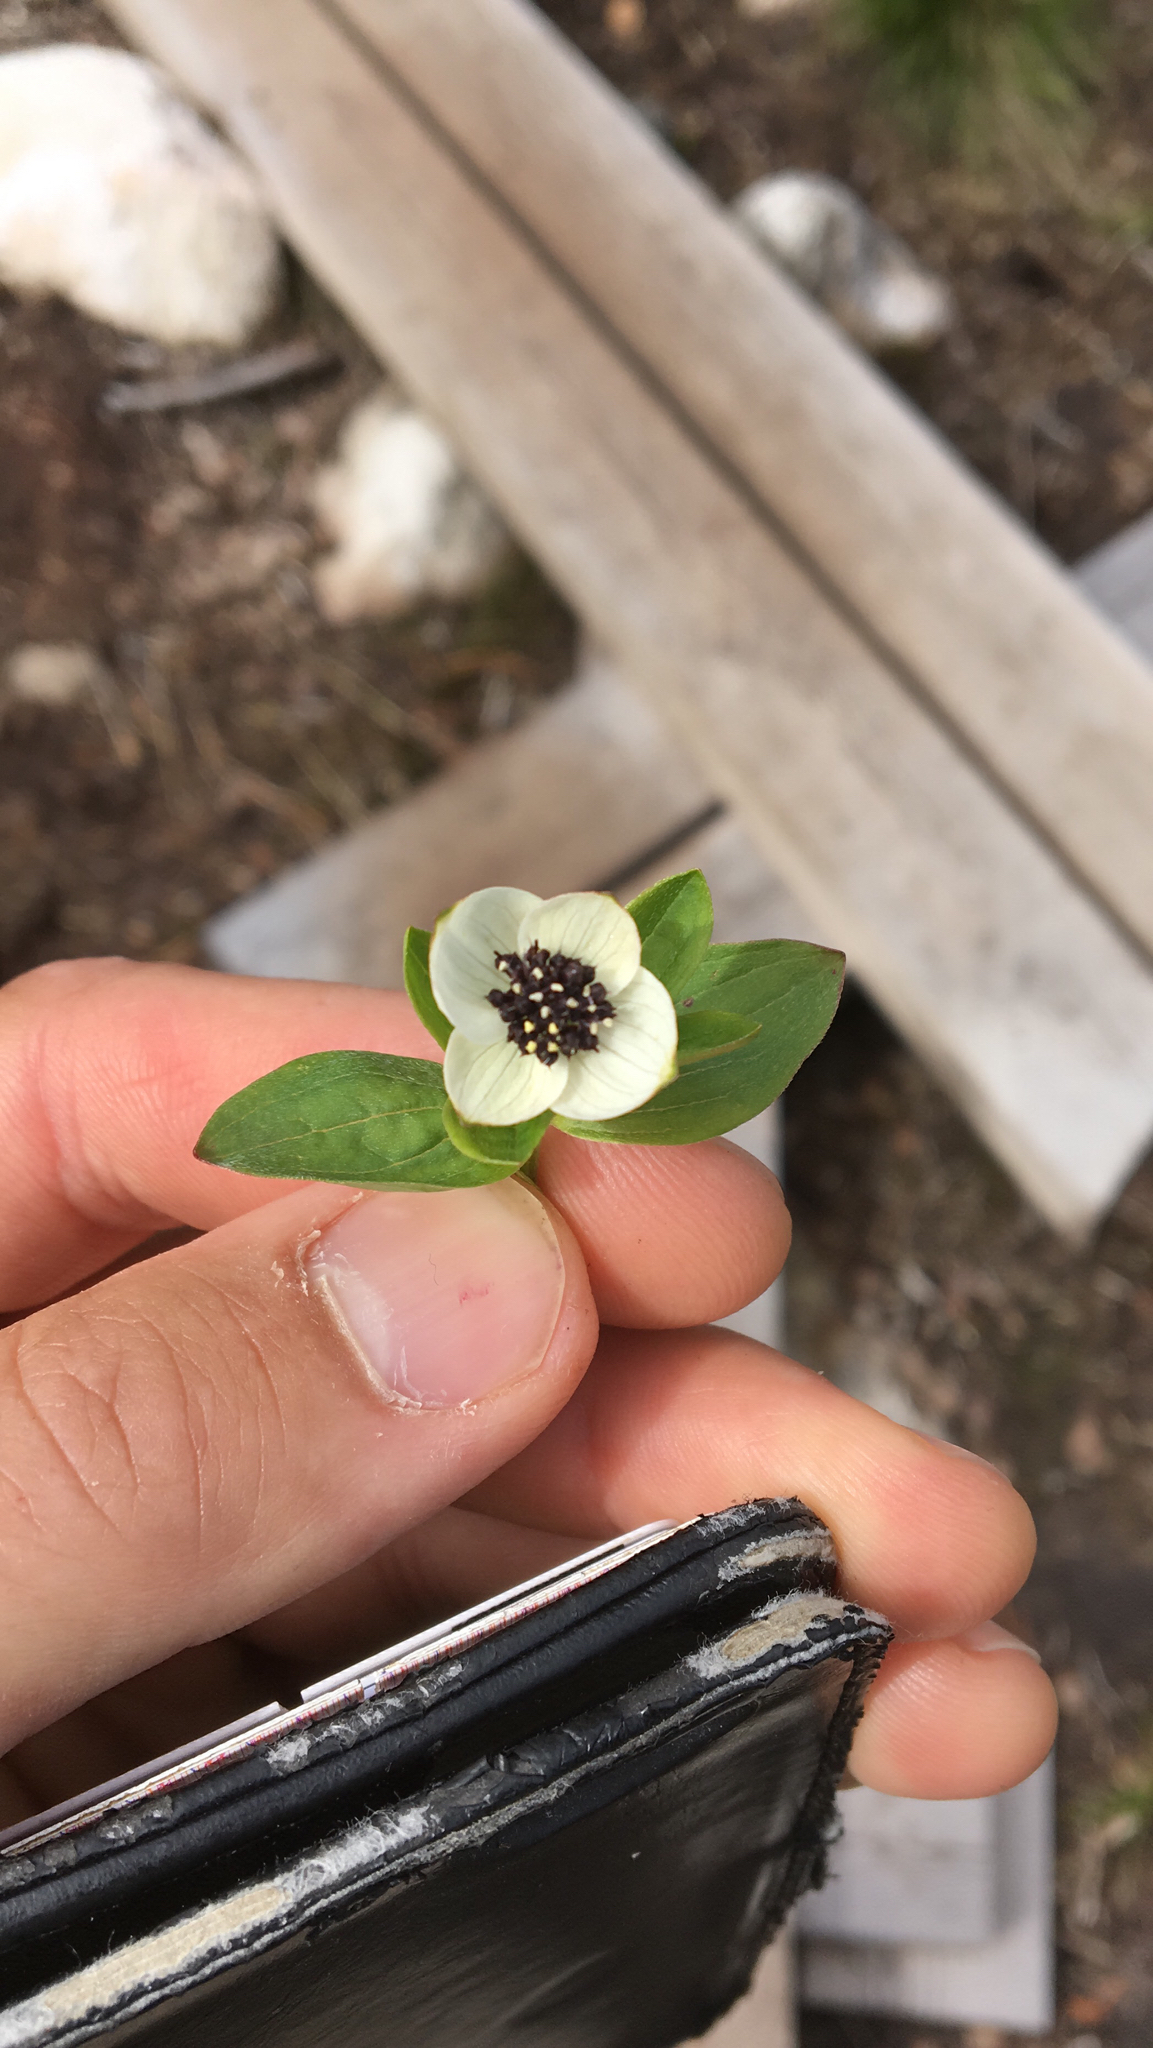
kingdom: Plantae
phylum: Tracheophyta
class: Magnoliopsida
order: Cornales
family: Cornaceae
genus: Cornus
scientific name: Cornus suecica
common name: Dwarf cornel
